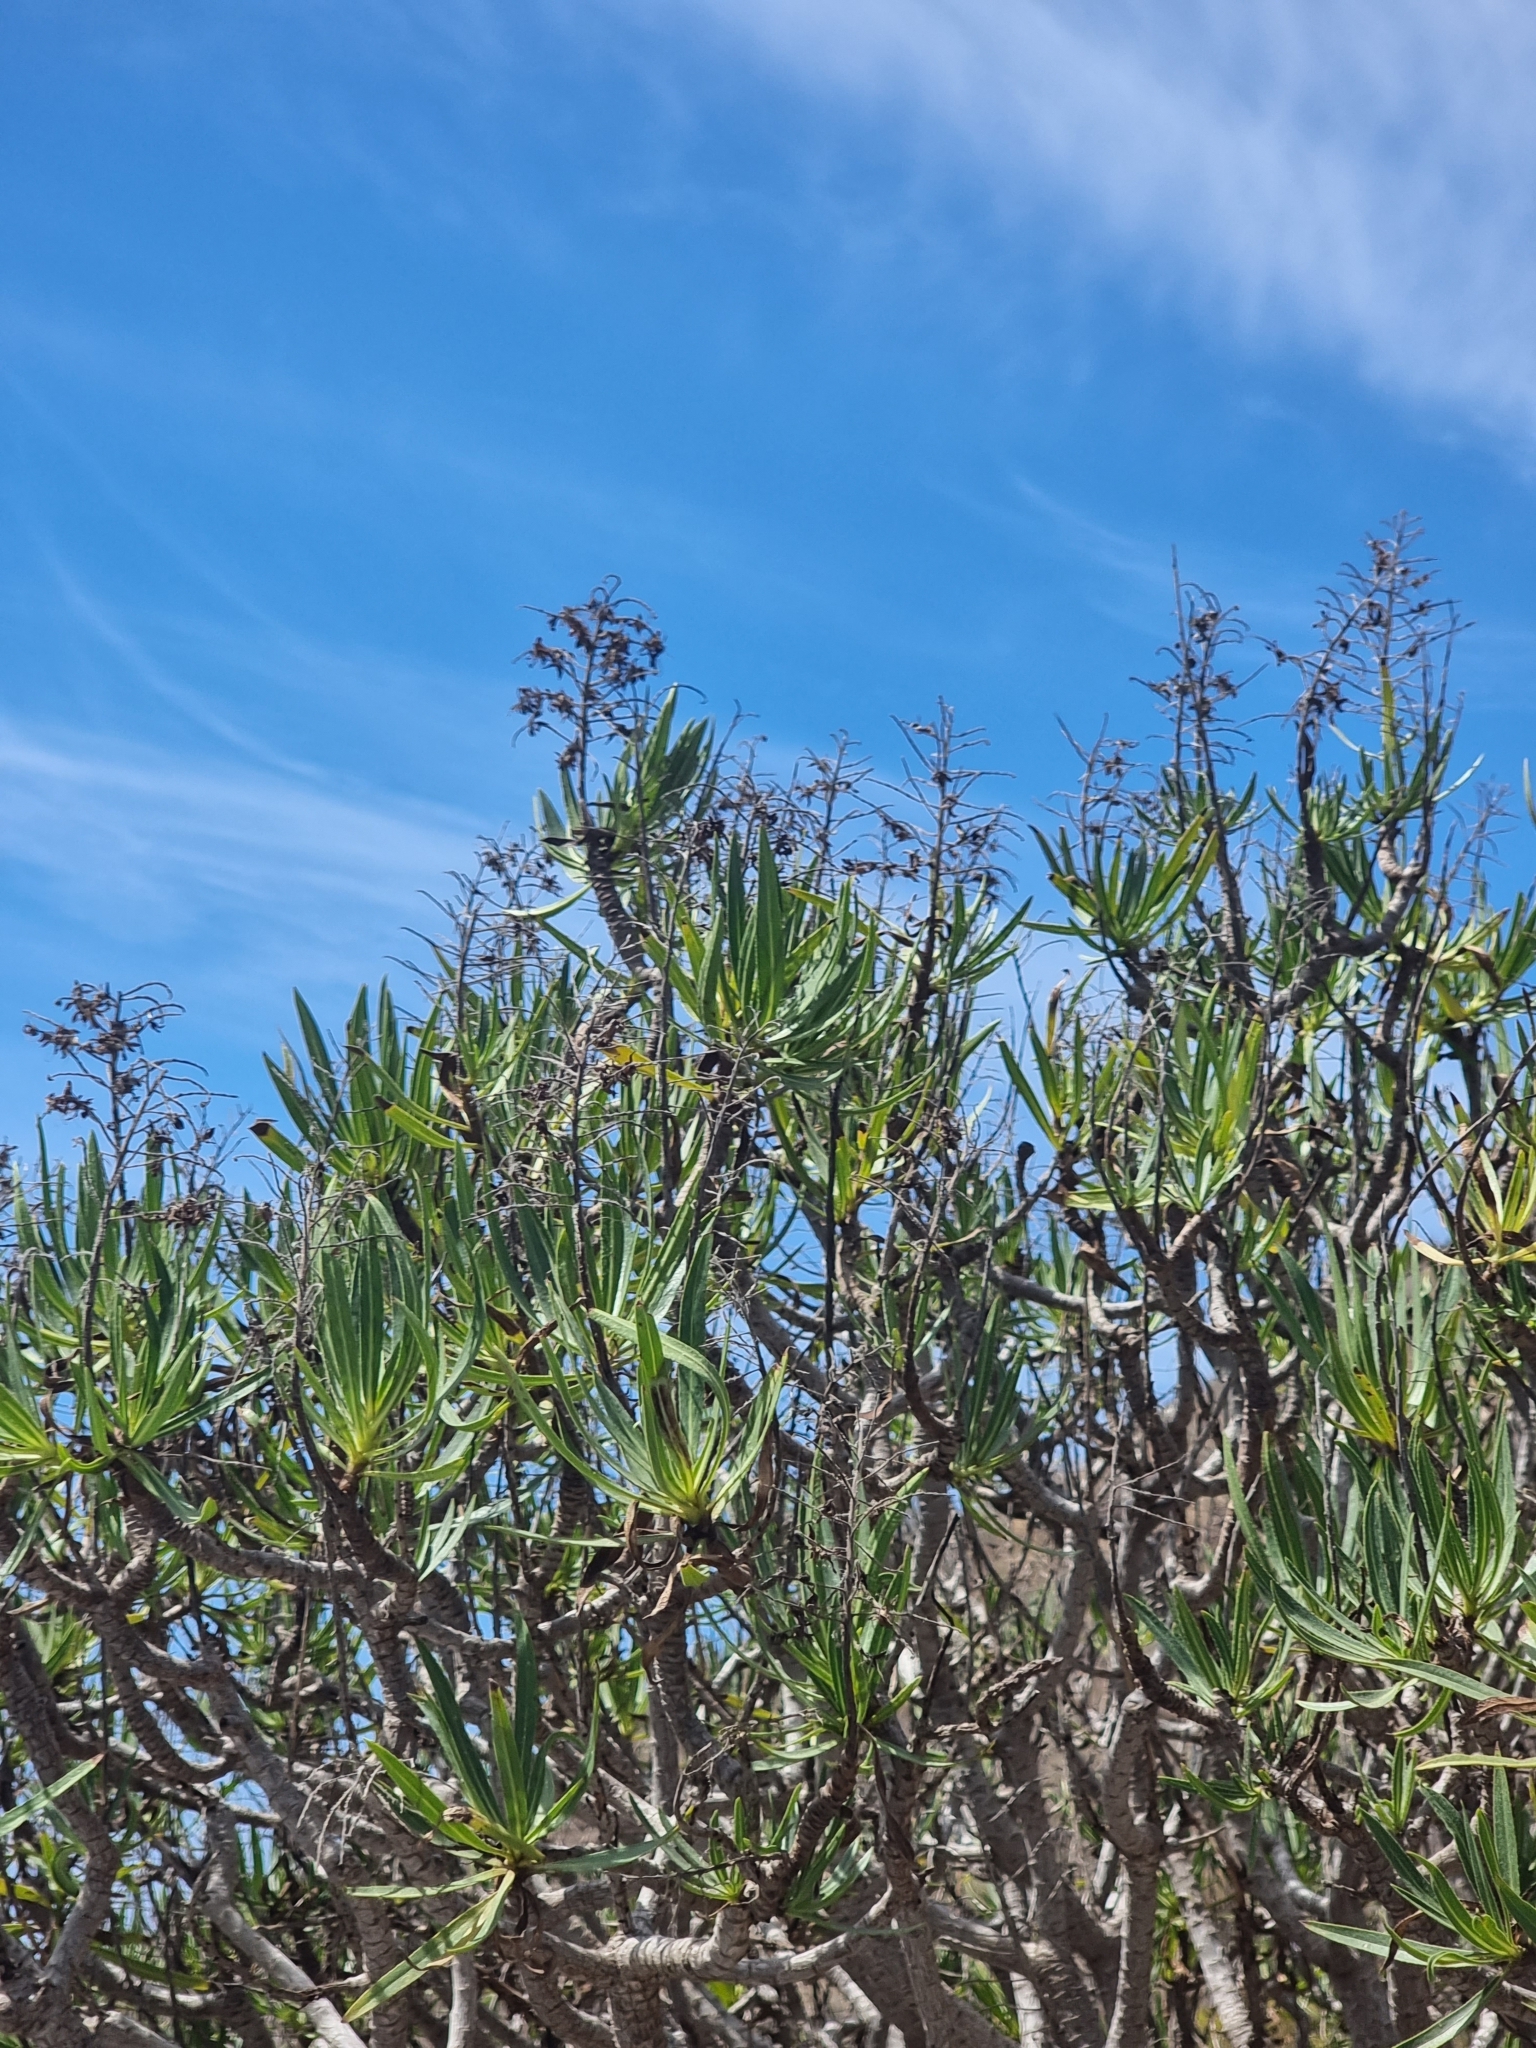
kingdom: Plantae
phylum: Tracheophyta
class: Magnoliopsida
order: Boraginales
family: Boraginaceae
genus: Echium
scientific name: Echium decaisnei
